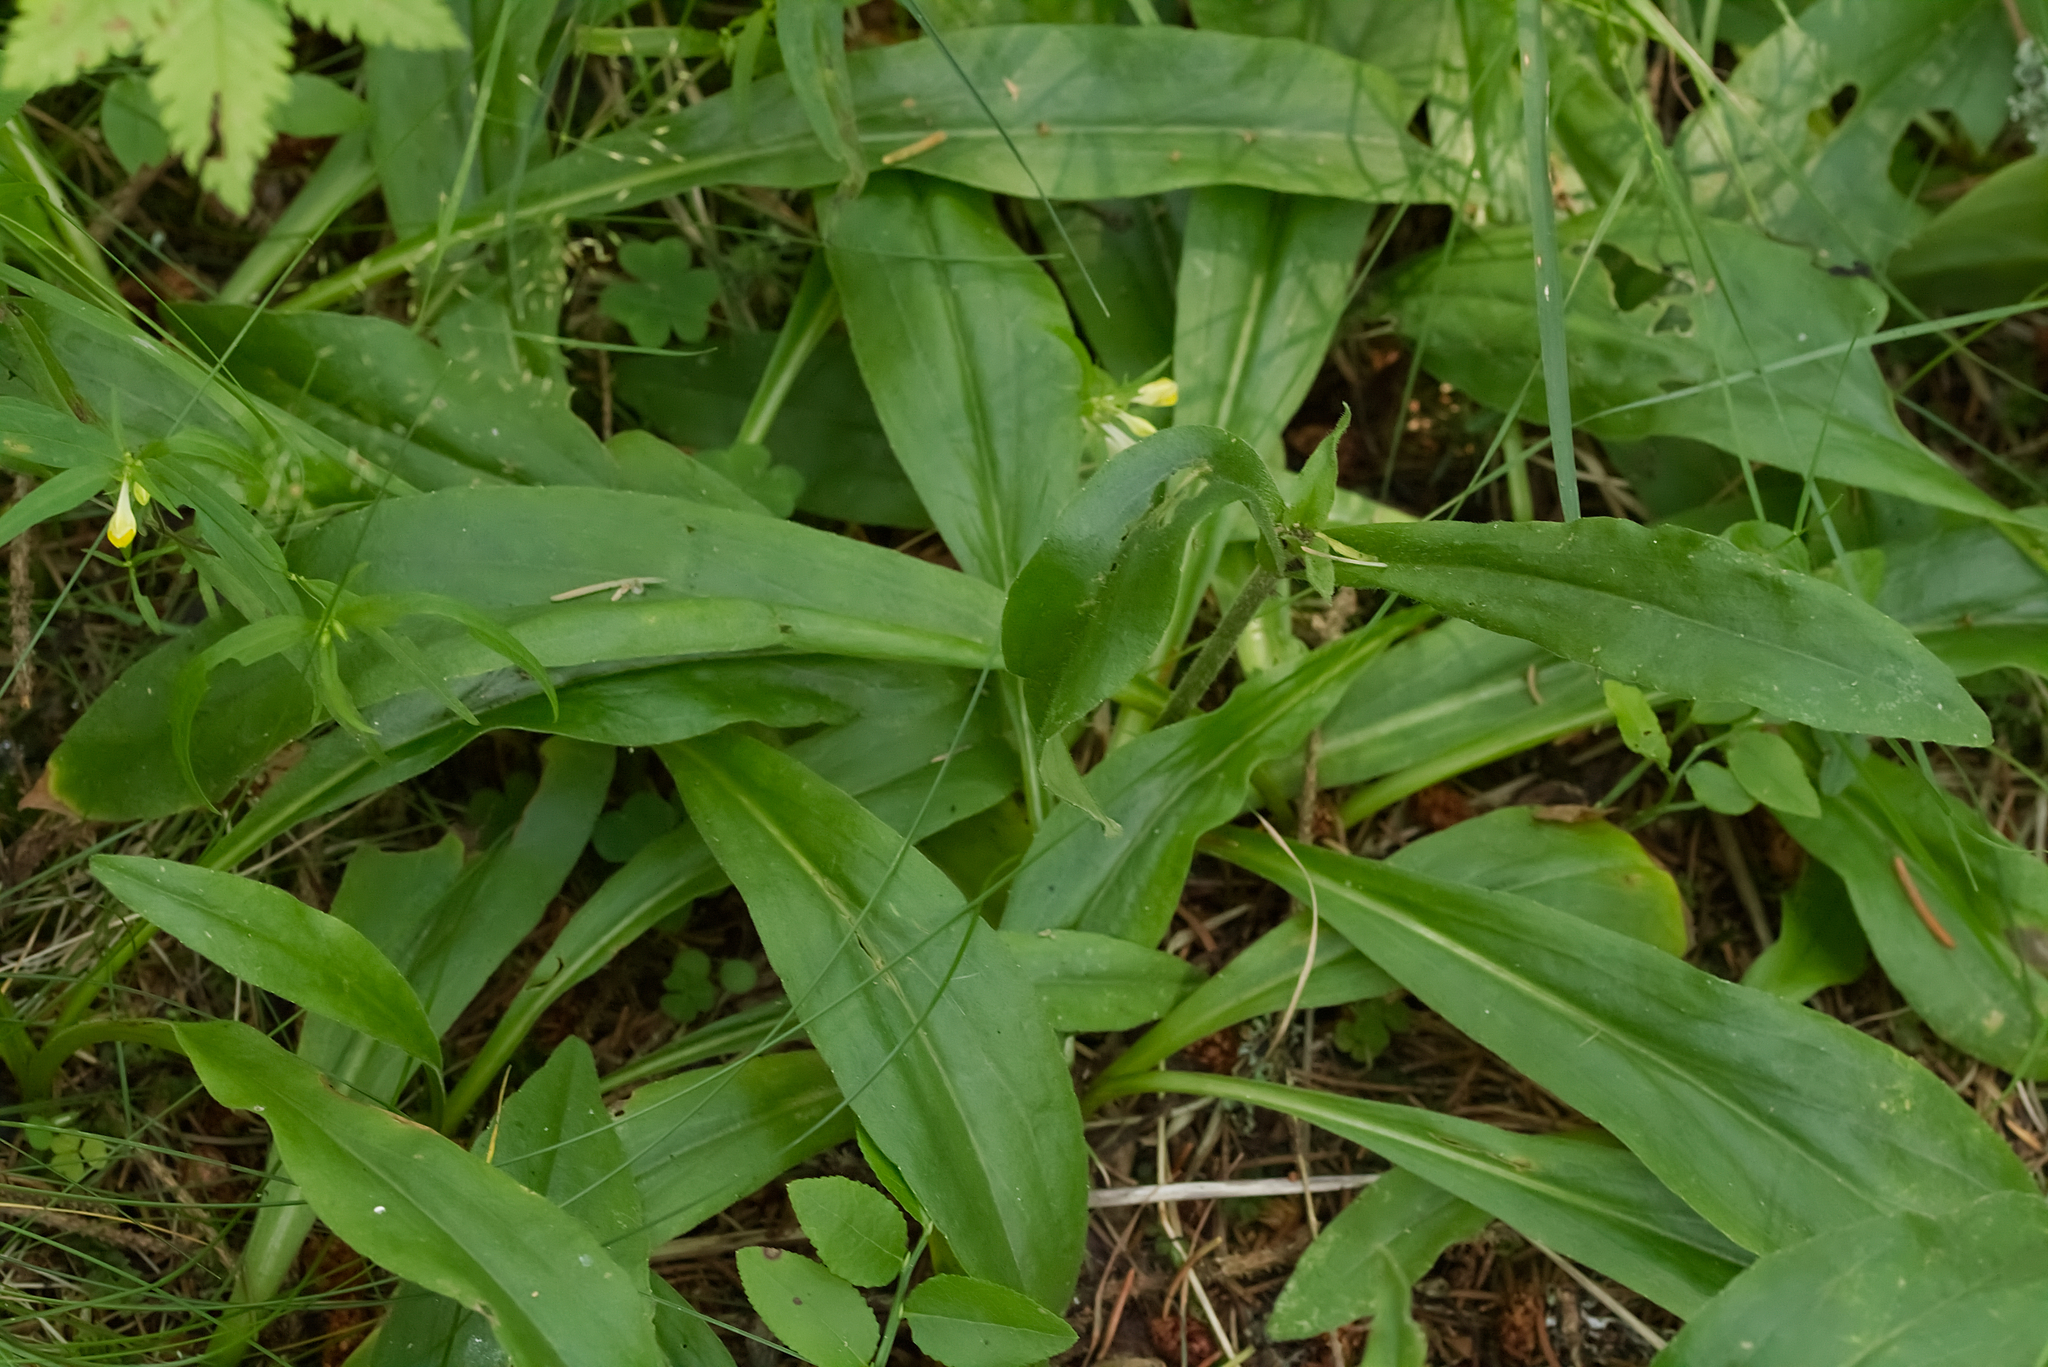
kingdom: Plantae
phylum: Tracheophyta
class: Magnoliopsida
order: Asterales
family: Asteraceae
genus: Arnica
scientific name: Arnica montana
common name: Leopard's bane
